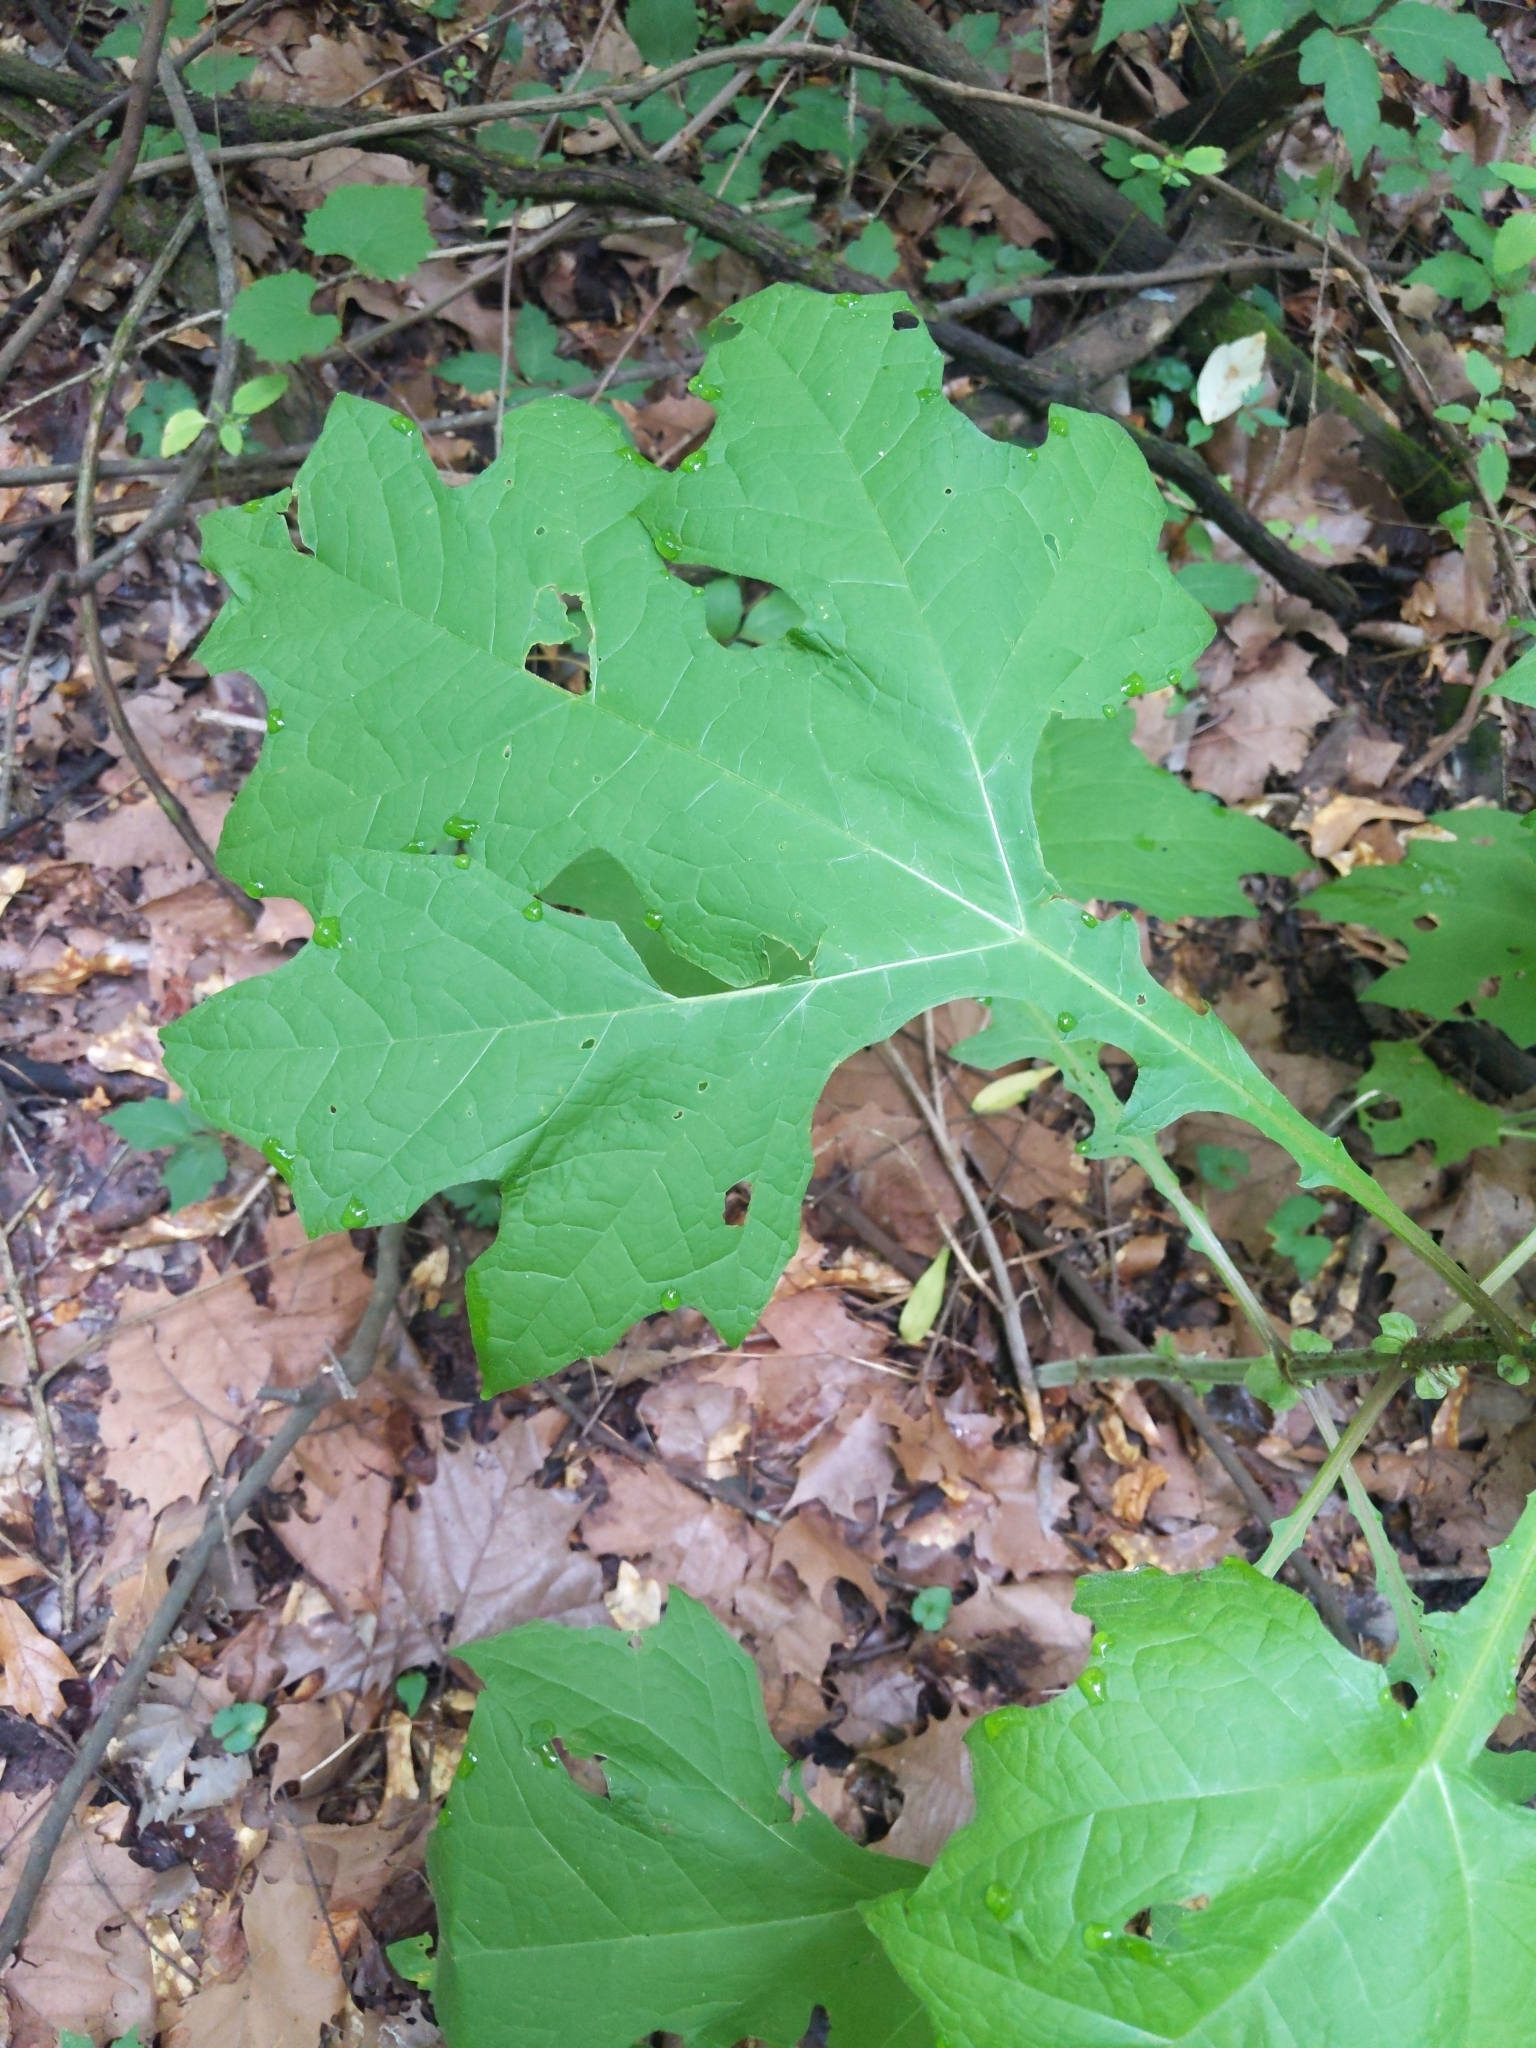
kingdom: Plantae
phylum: Tracheophyta
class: Magnoliopsida
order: Asterales
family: Asteraceae
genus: Smallanthus
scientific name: Smallanthus uvedalia
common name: Bear's-foot
